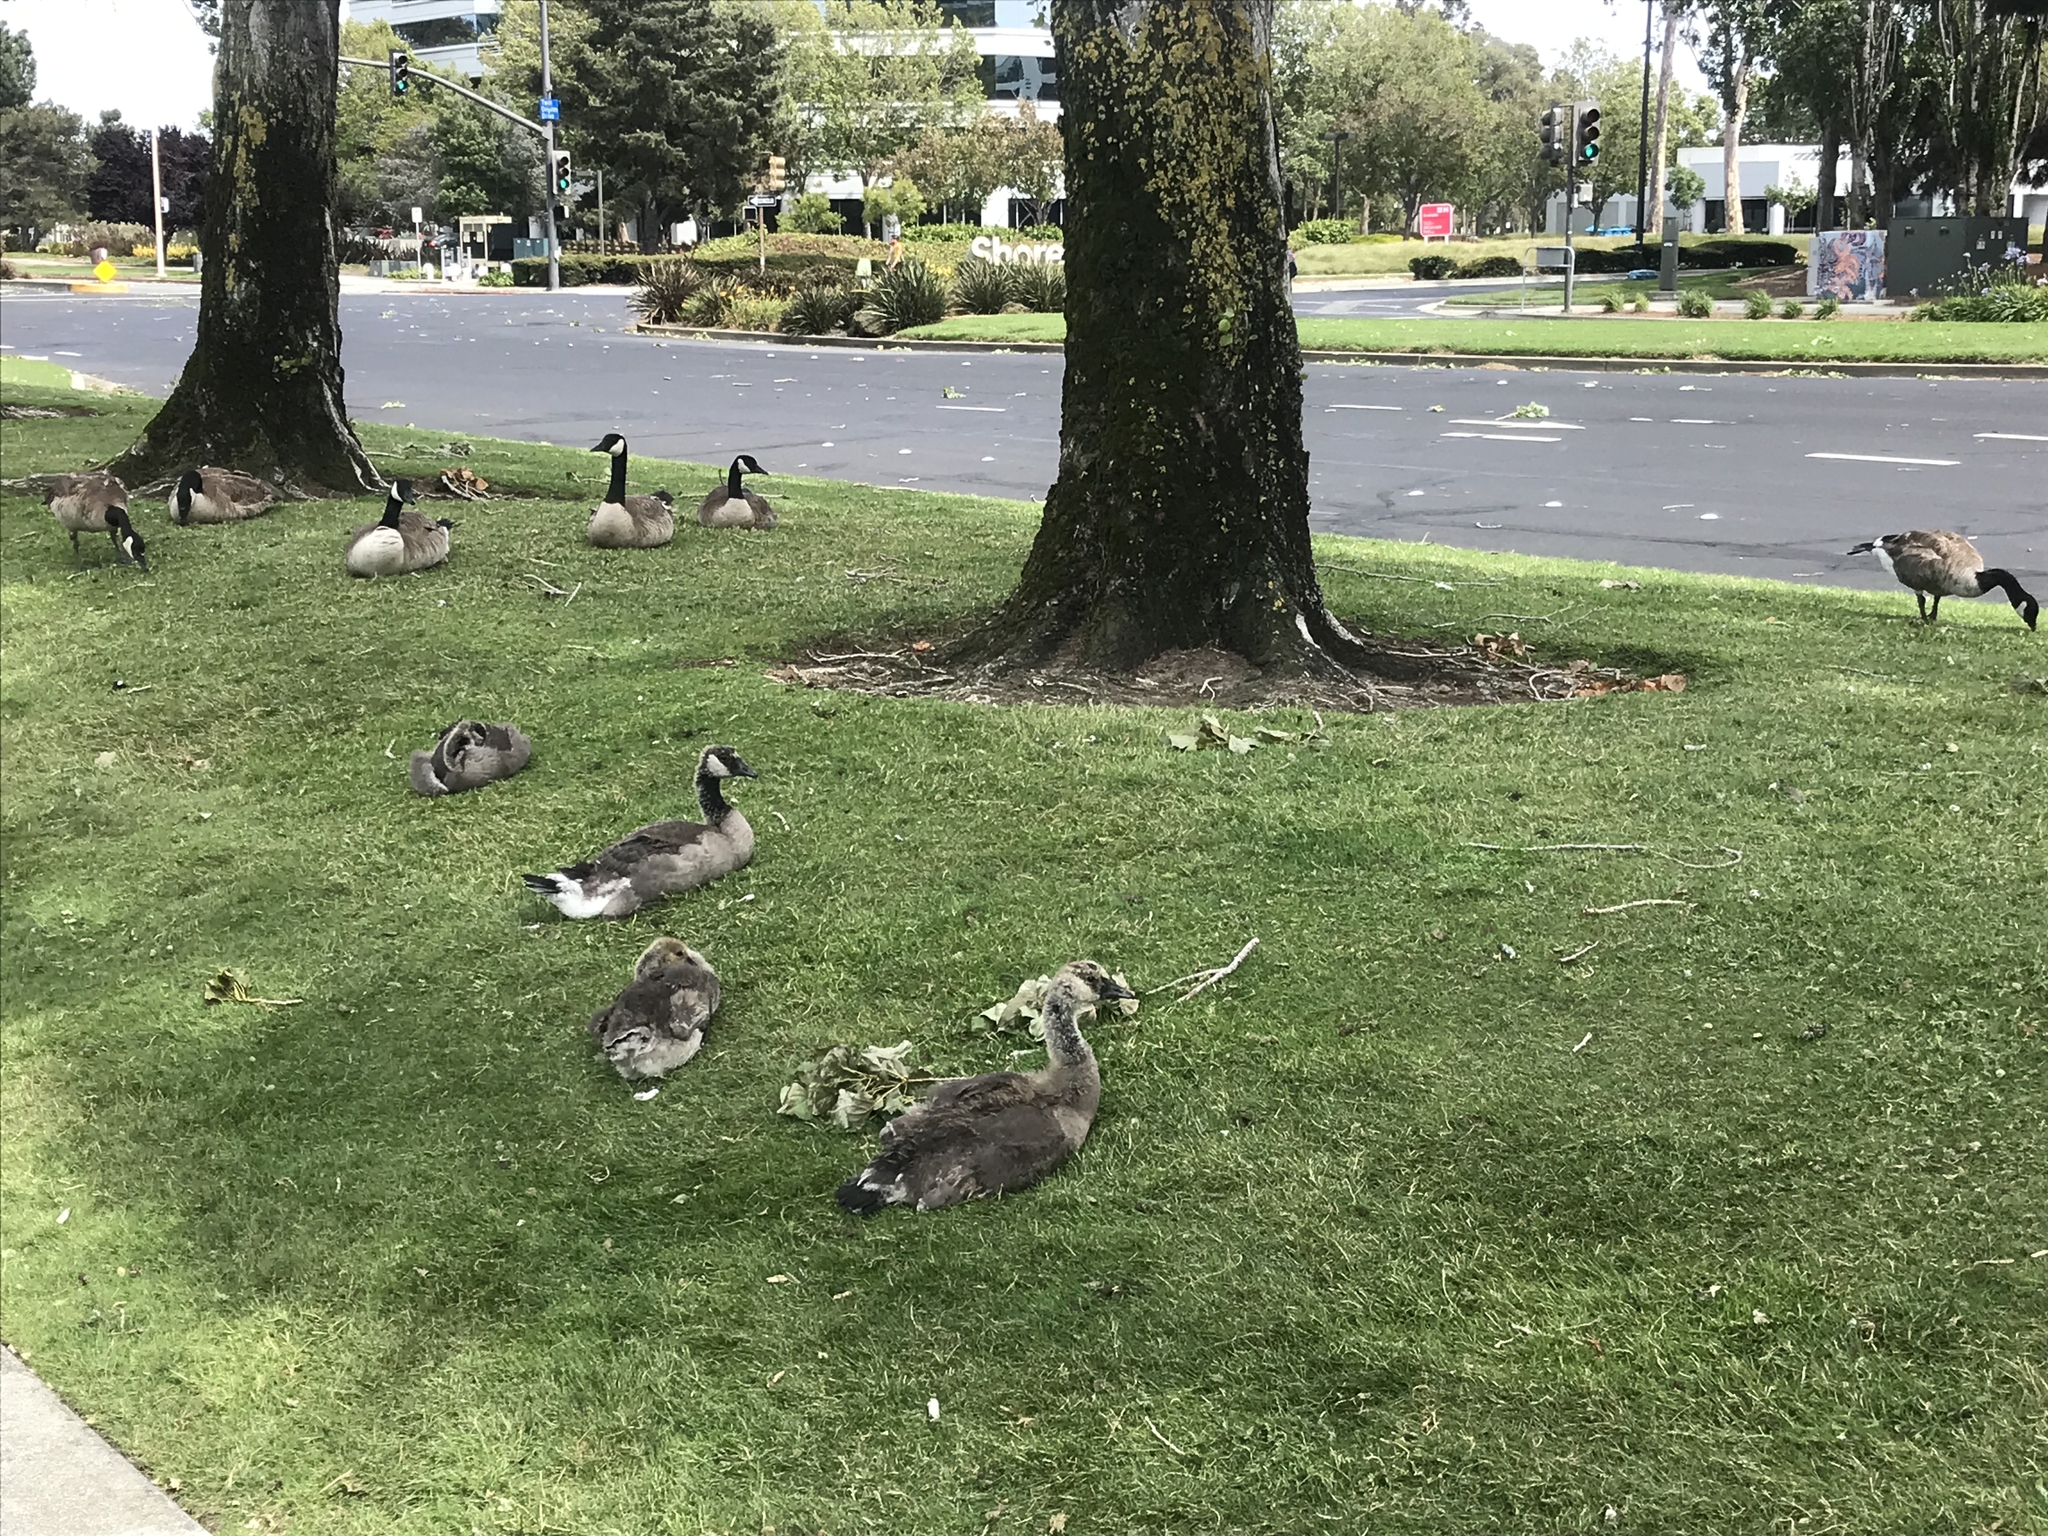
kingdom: Animalia
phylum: Chordata
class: Aves
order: Anseriformes
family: Anatidae
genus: Branta
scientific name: Branta canadensis
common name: Canada goose
